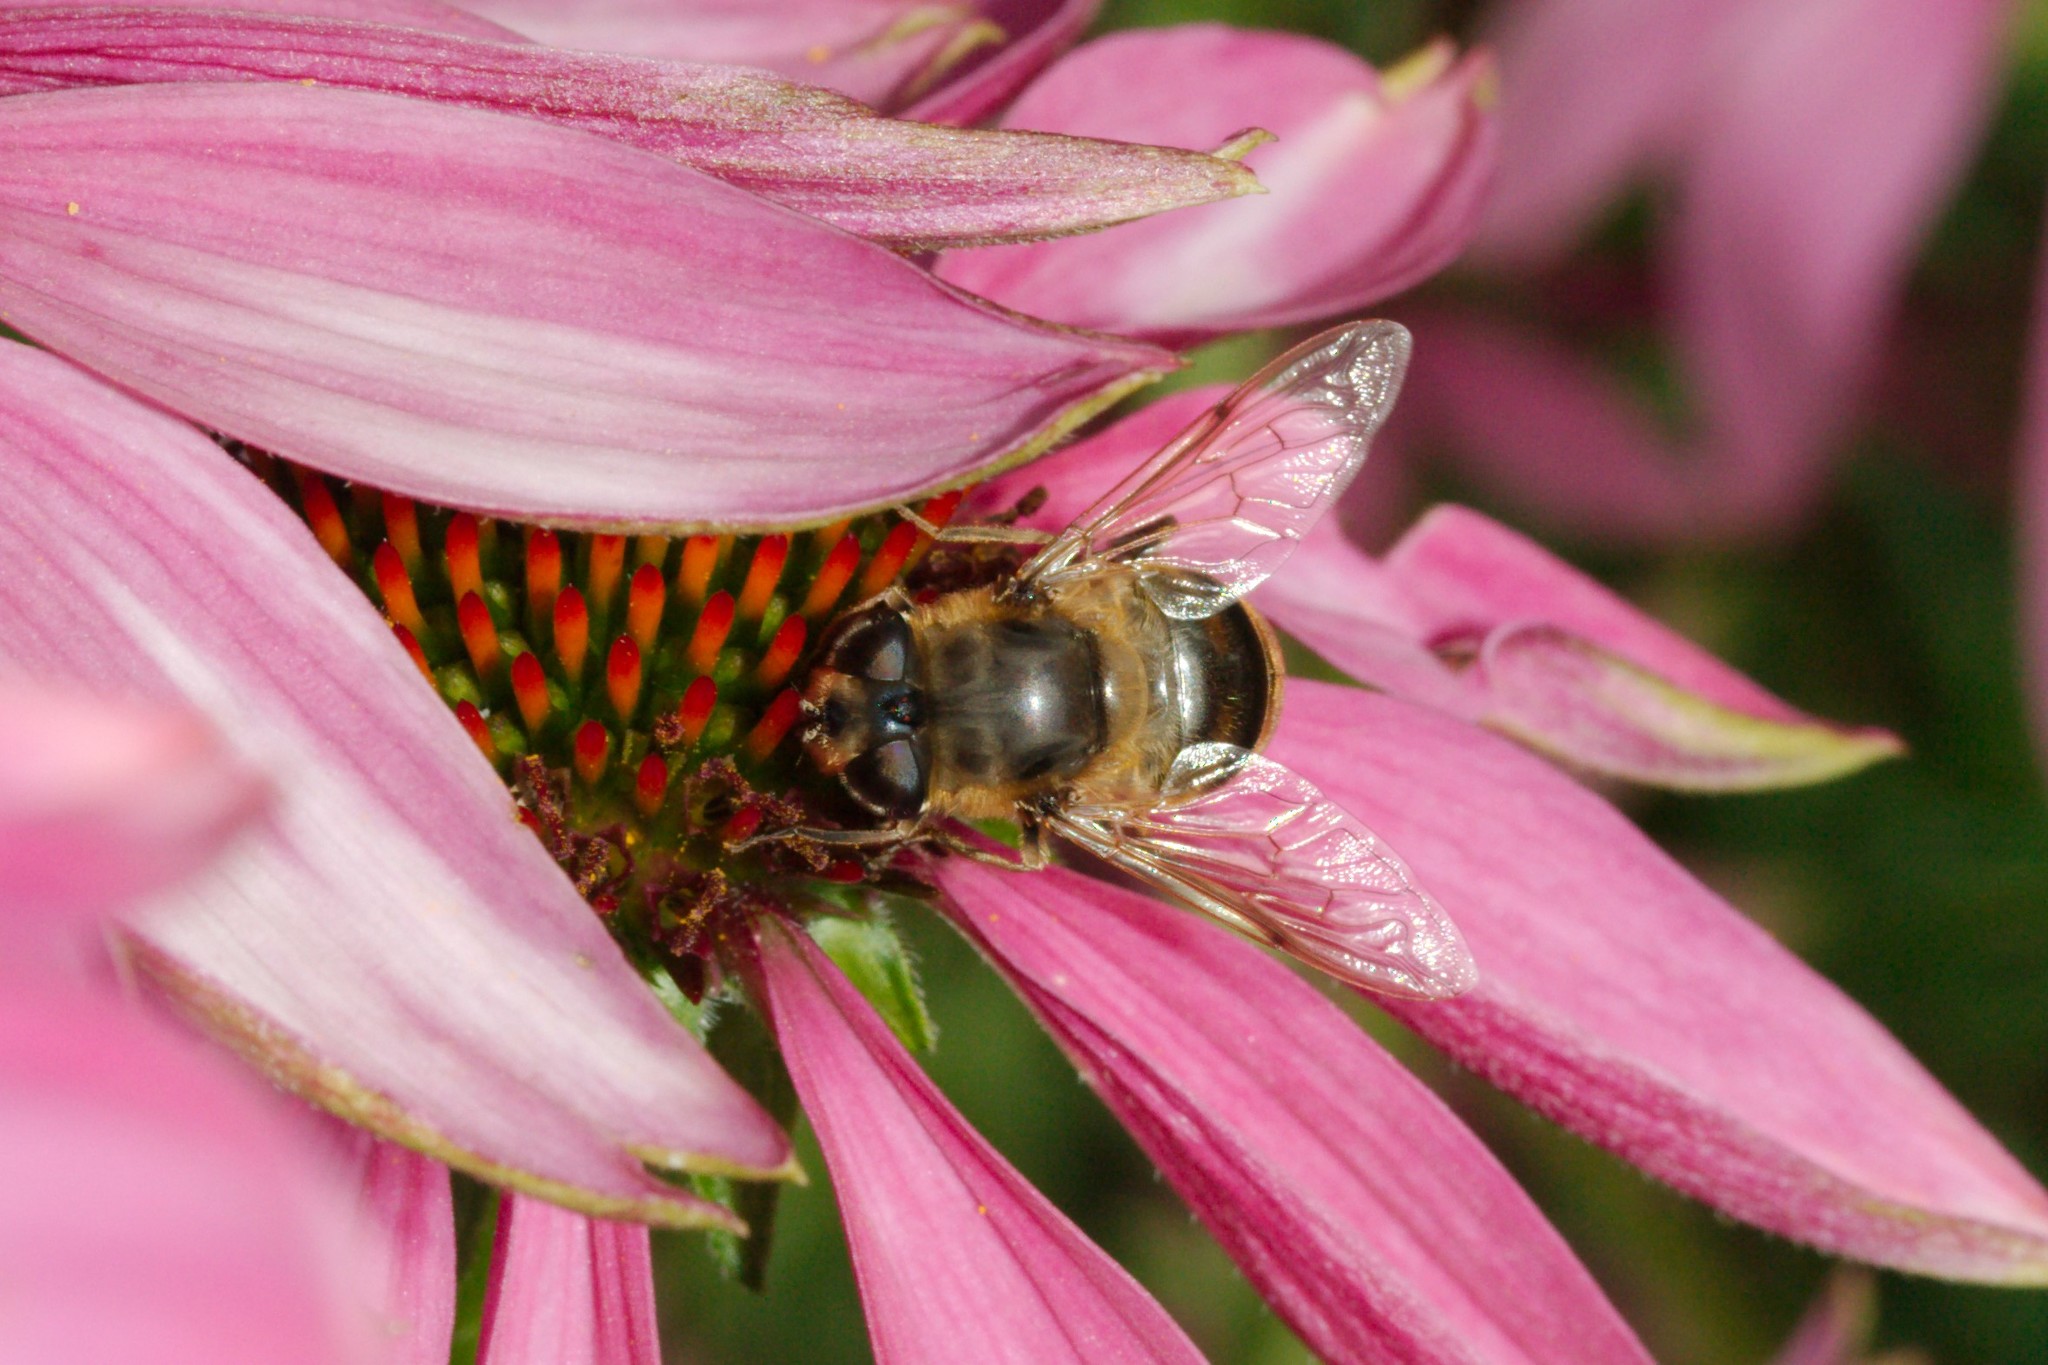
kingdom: Animalia
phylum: Arthropoda
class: Insecta
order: Diptera
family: Syrphidae
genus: Eristalis
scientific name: Eristalis tenax
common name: Drone fly
